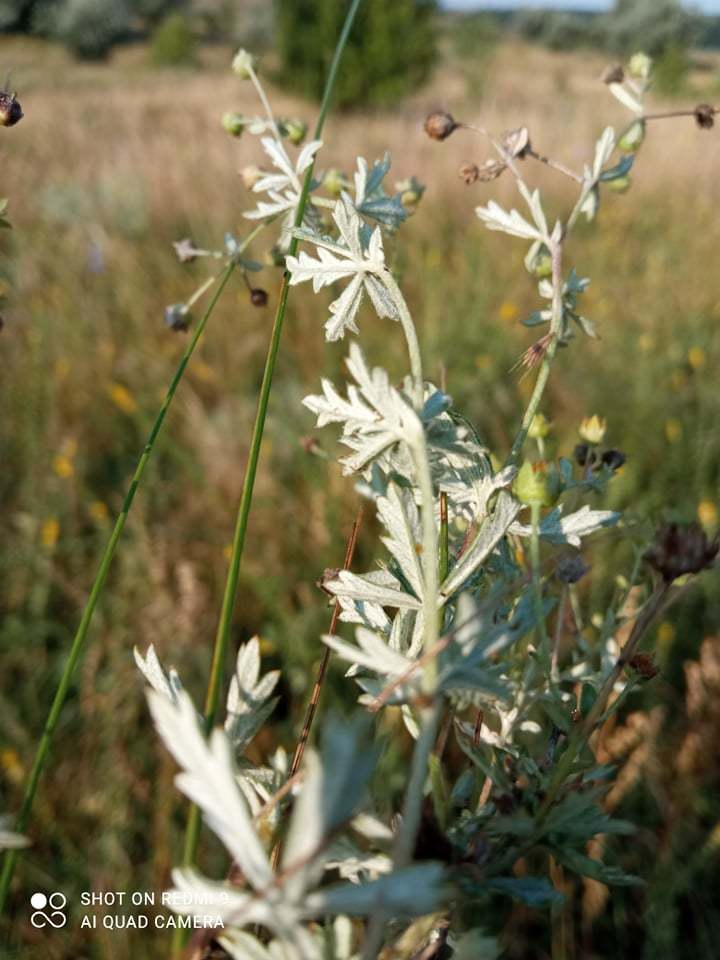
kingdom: Plantae
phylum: Tracheophyta
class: Magnoliopsida
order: Rosales
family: Rosaceae
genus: Potentilla
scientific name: Potentilla argentea
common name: Hoary cinquefoil
